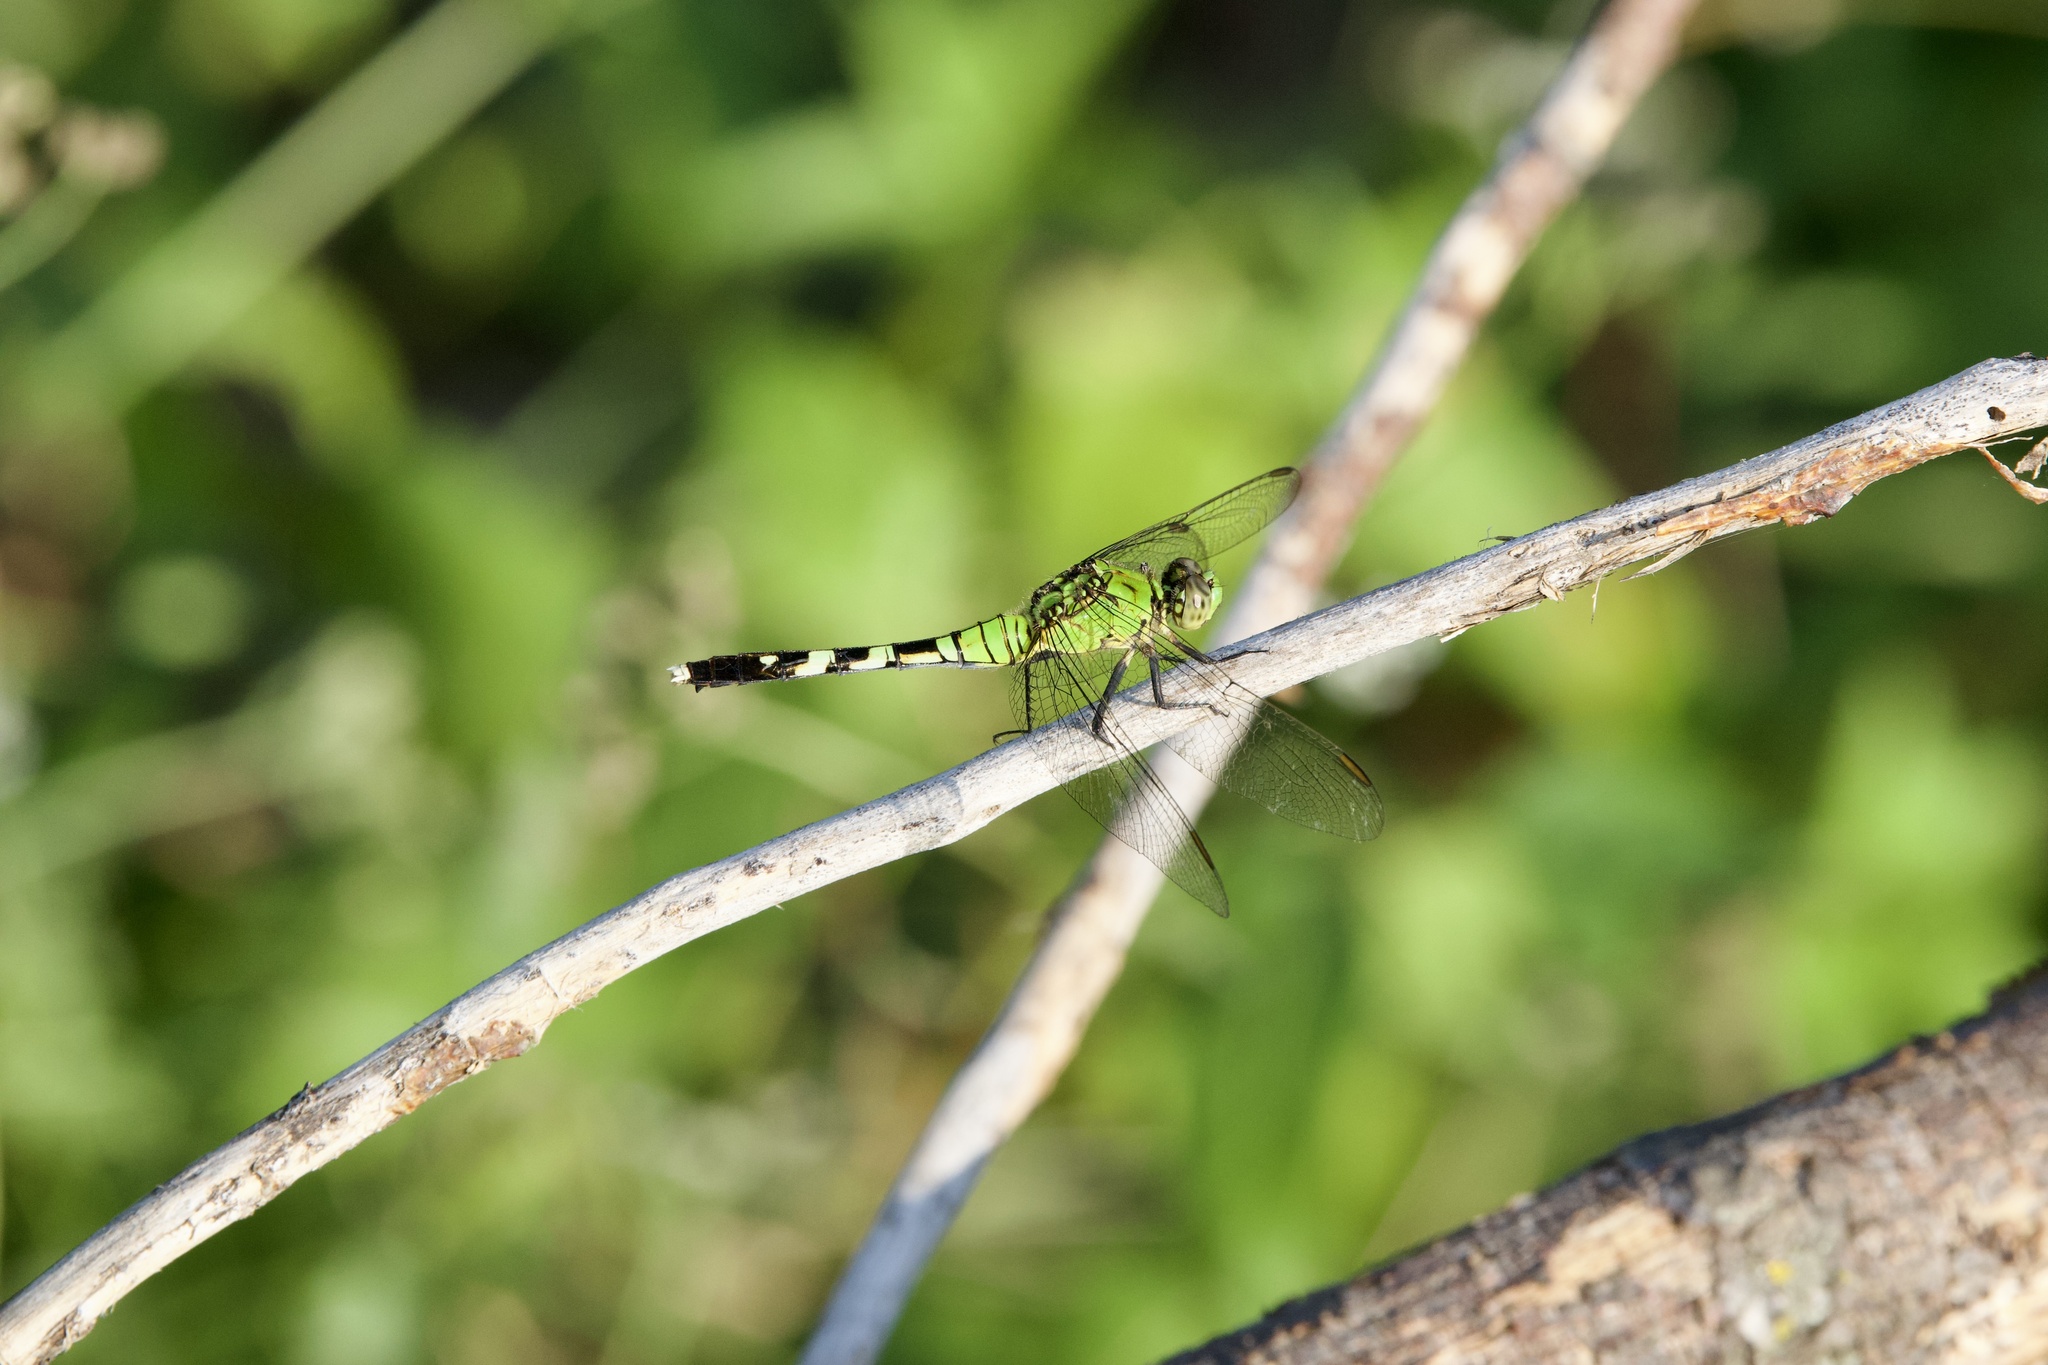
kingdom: Animalia
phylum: Arthropoda
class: Insecta
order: Odonata
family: Libellulidae
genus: Erythemis
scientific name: Erythemis simplicicollis
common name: Eastern pondhawk
